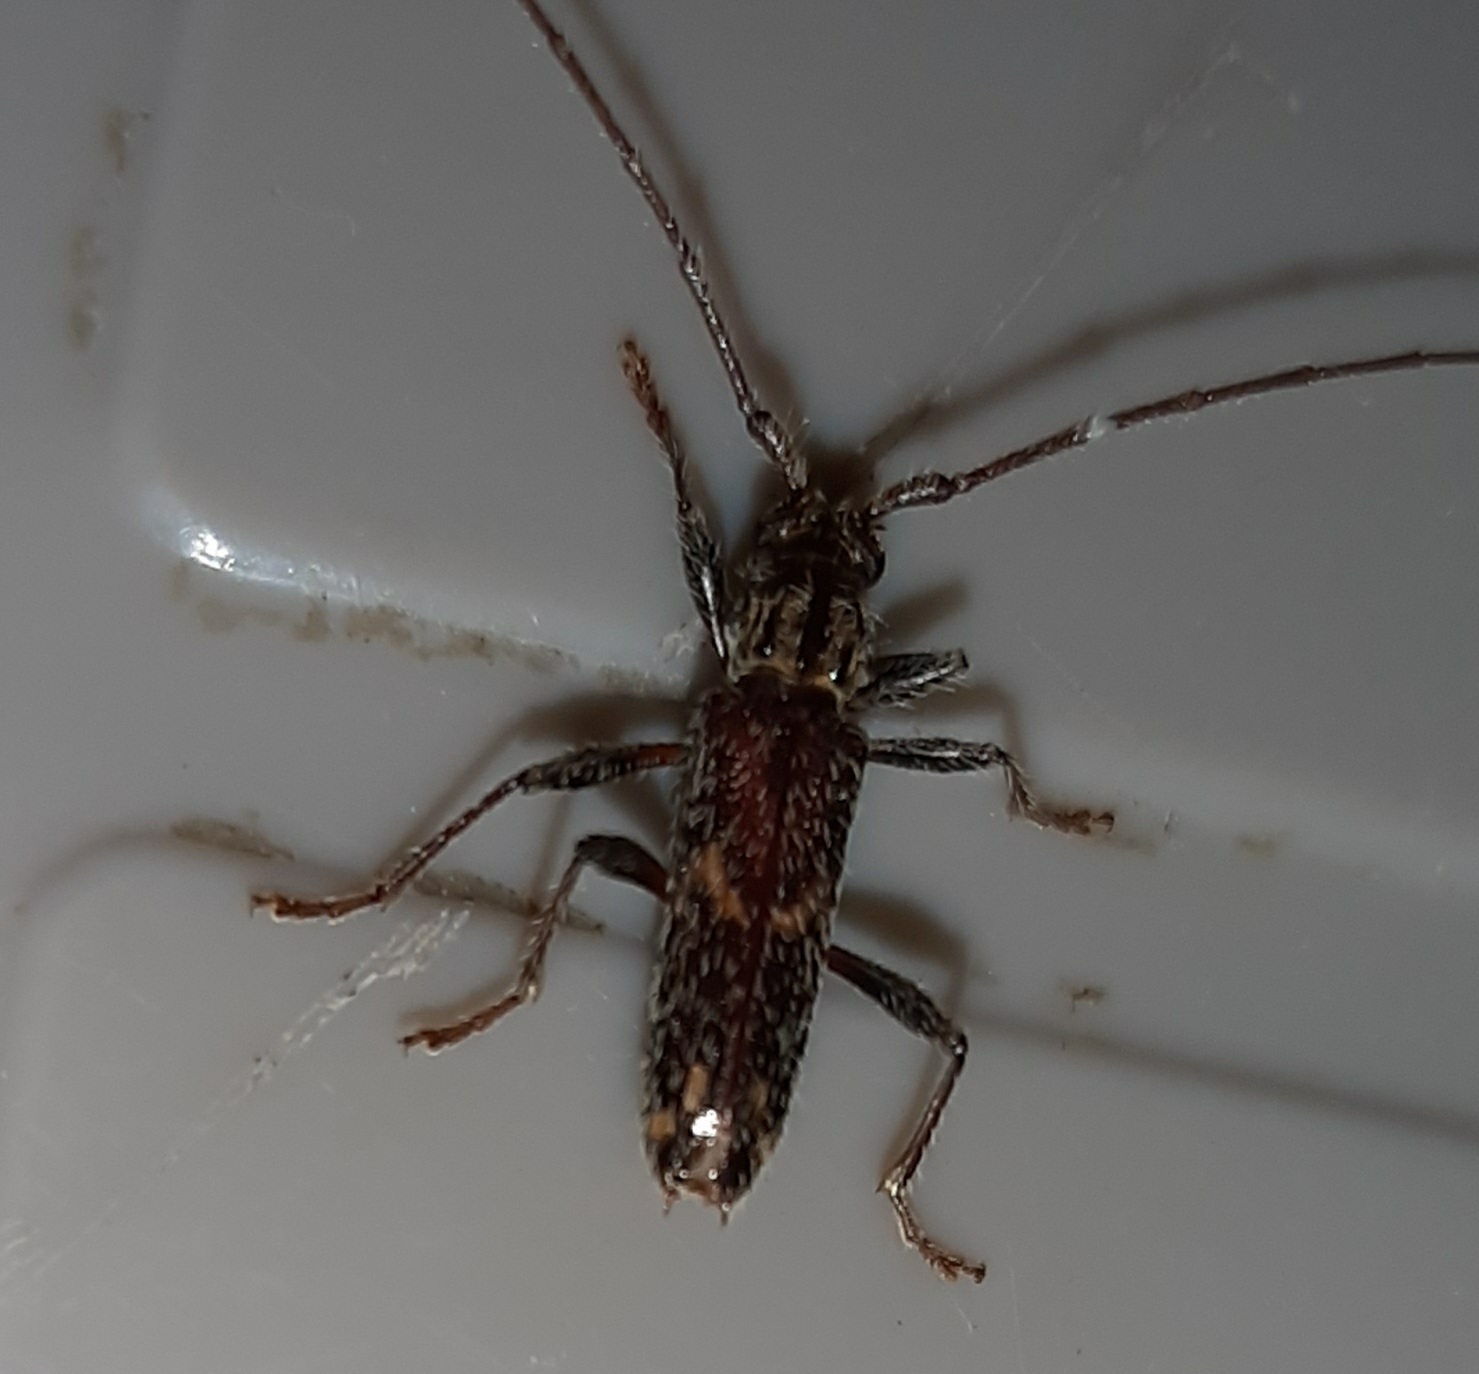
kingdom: Animalia
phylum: Arthropoda
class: Insecta
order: Coleoptera
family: Cerambycidae
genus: Eurysthea
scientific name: Eurysthea cribripennis
